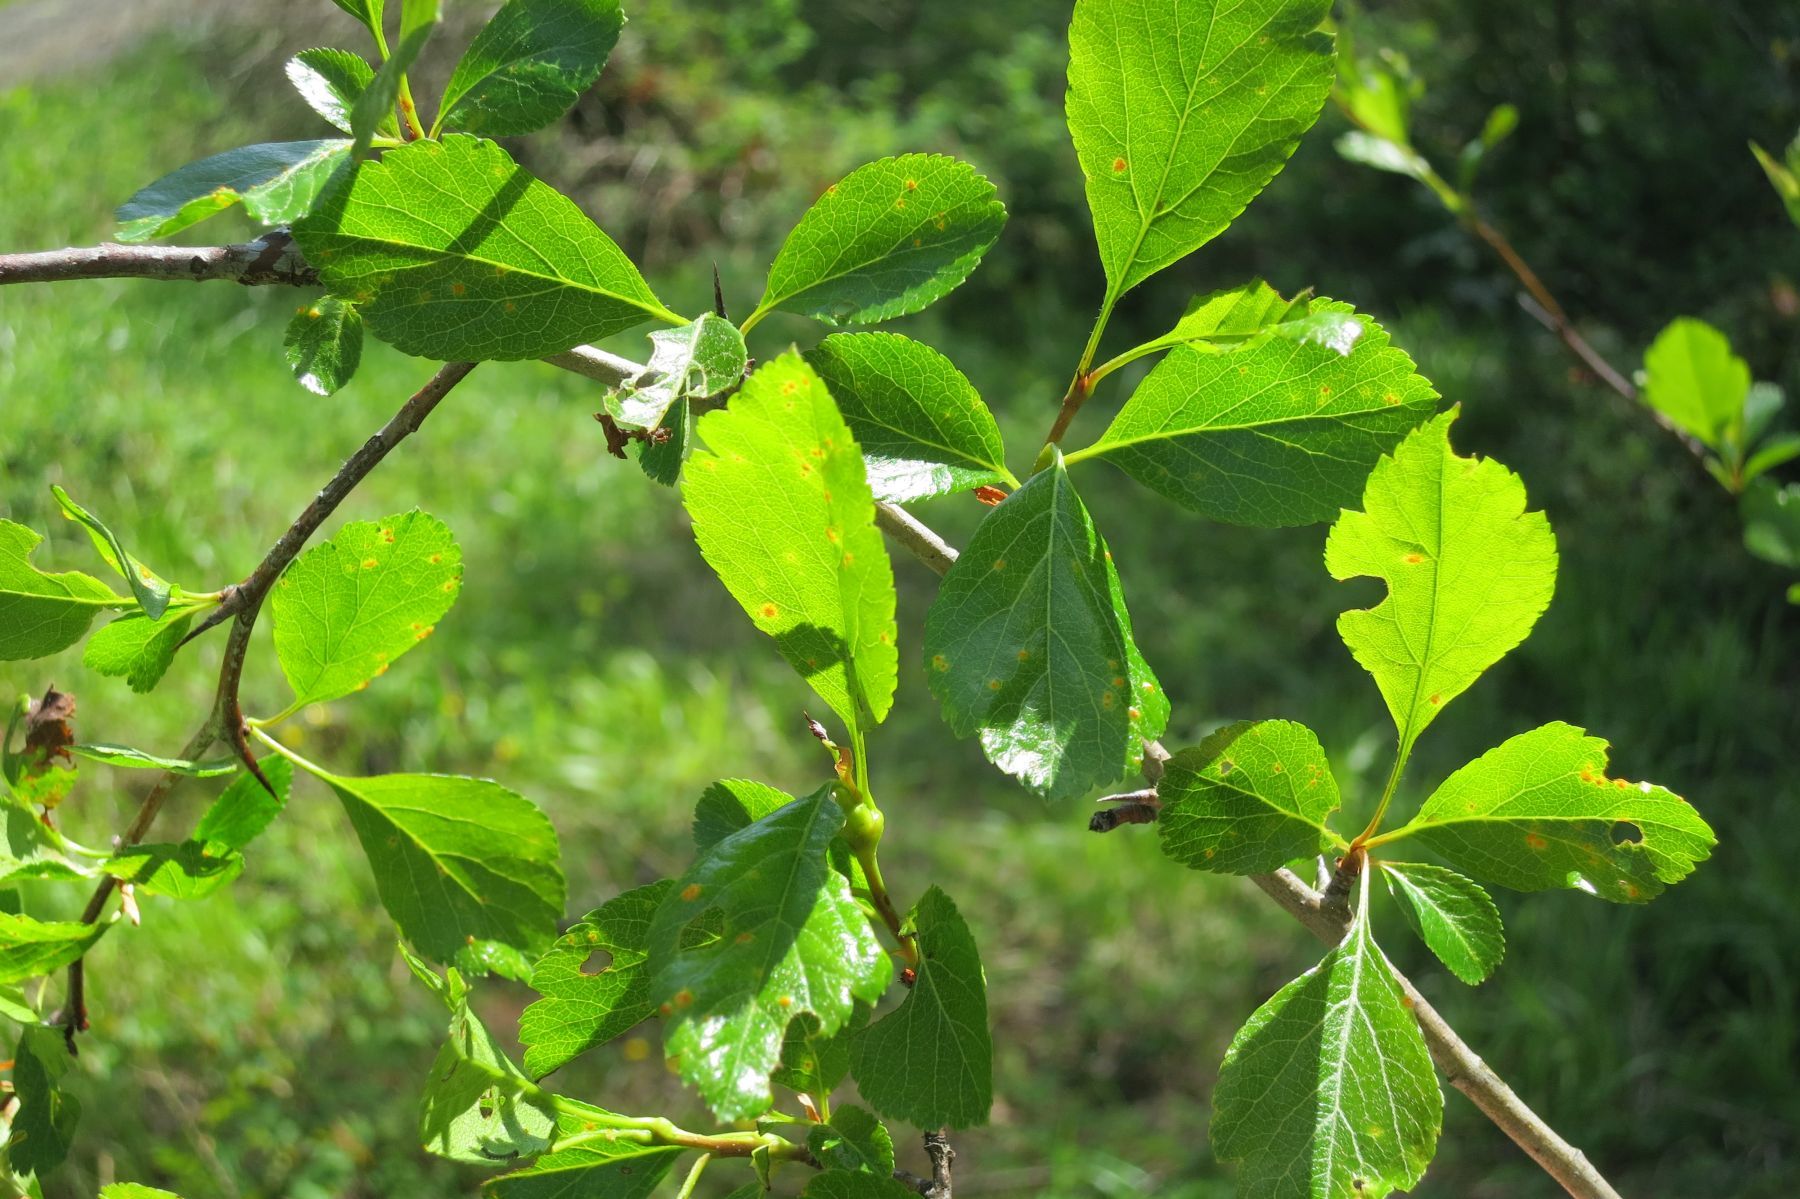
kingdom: Plantae
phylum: Tracheophyta
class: Magnoliopsida
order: Rosales
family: Rosaceae
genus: Crataegus
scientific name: Crataegus gaylussacia
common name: Huckleberry hawthorn
